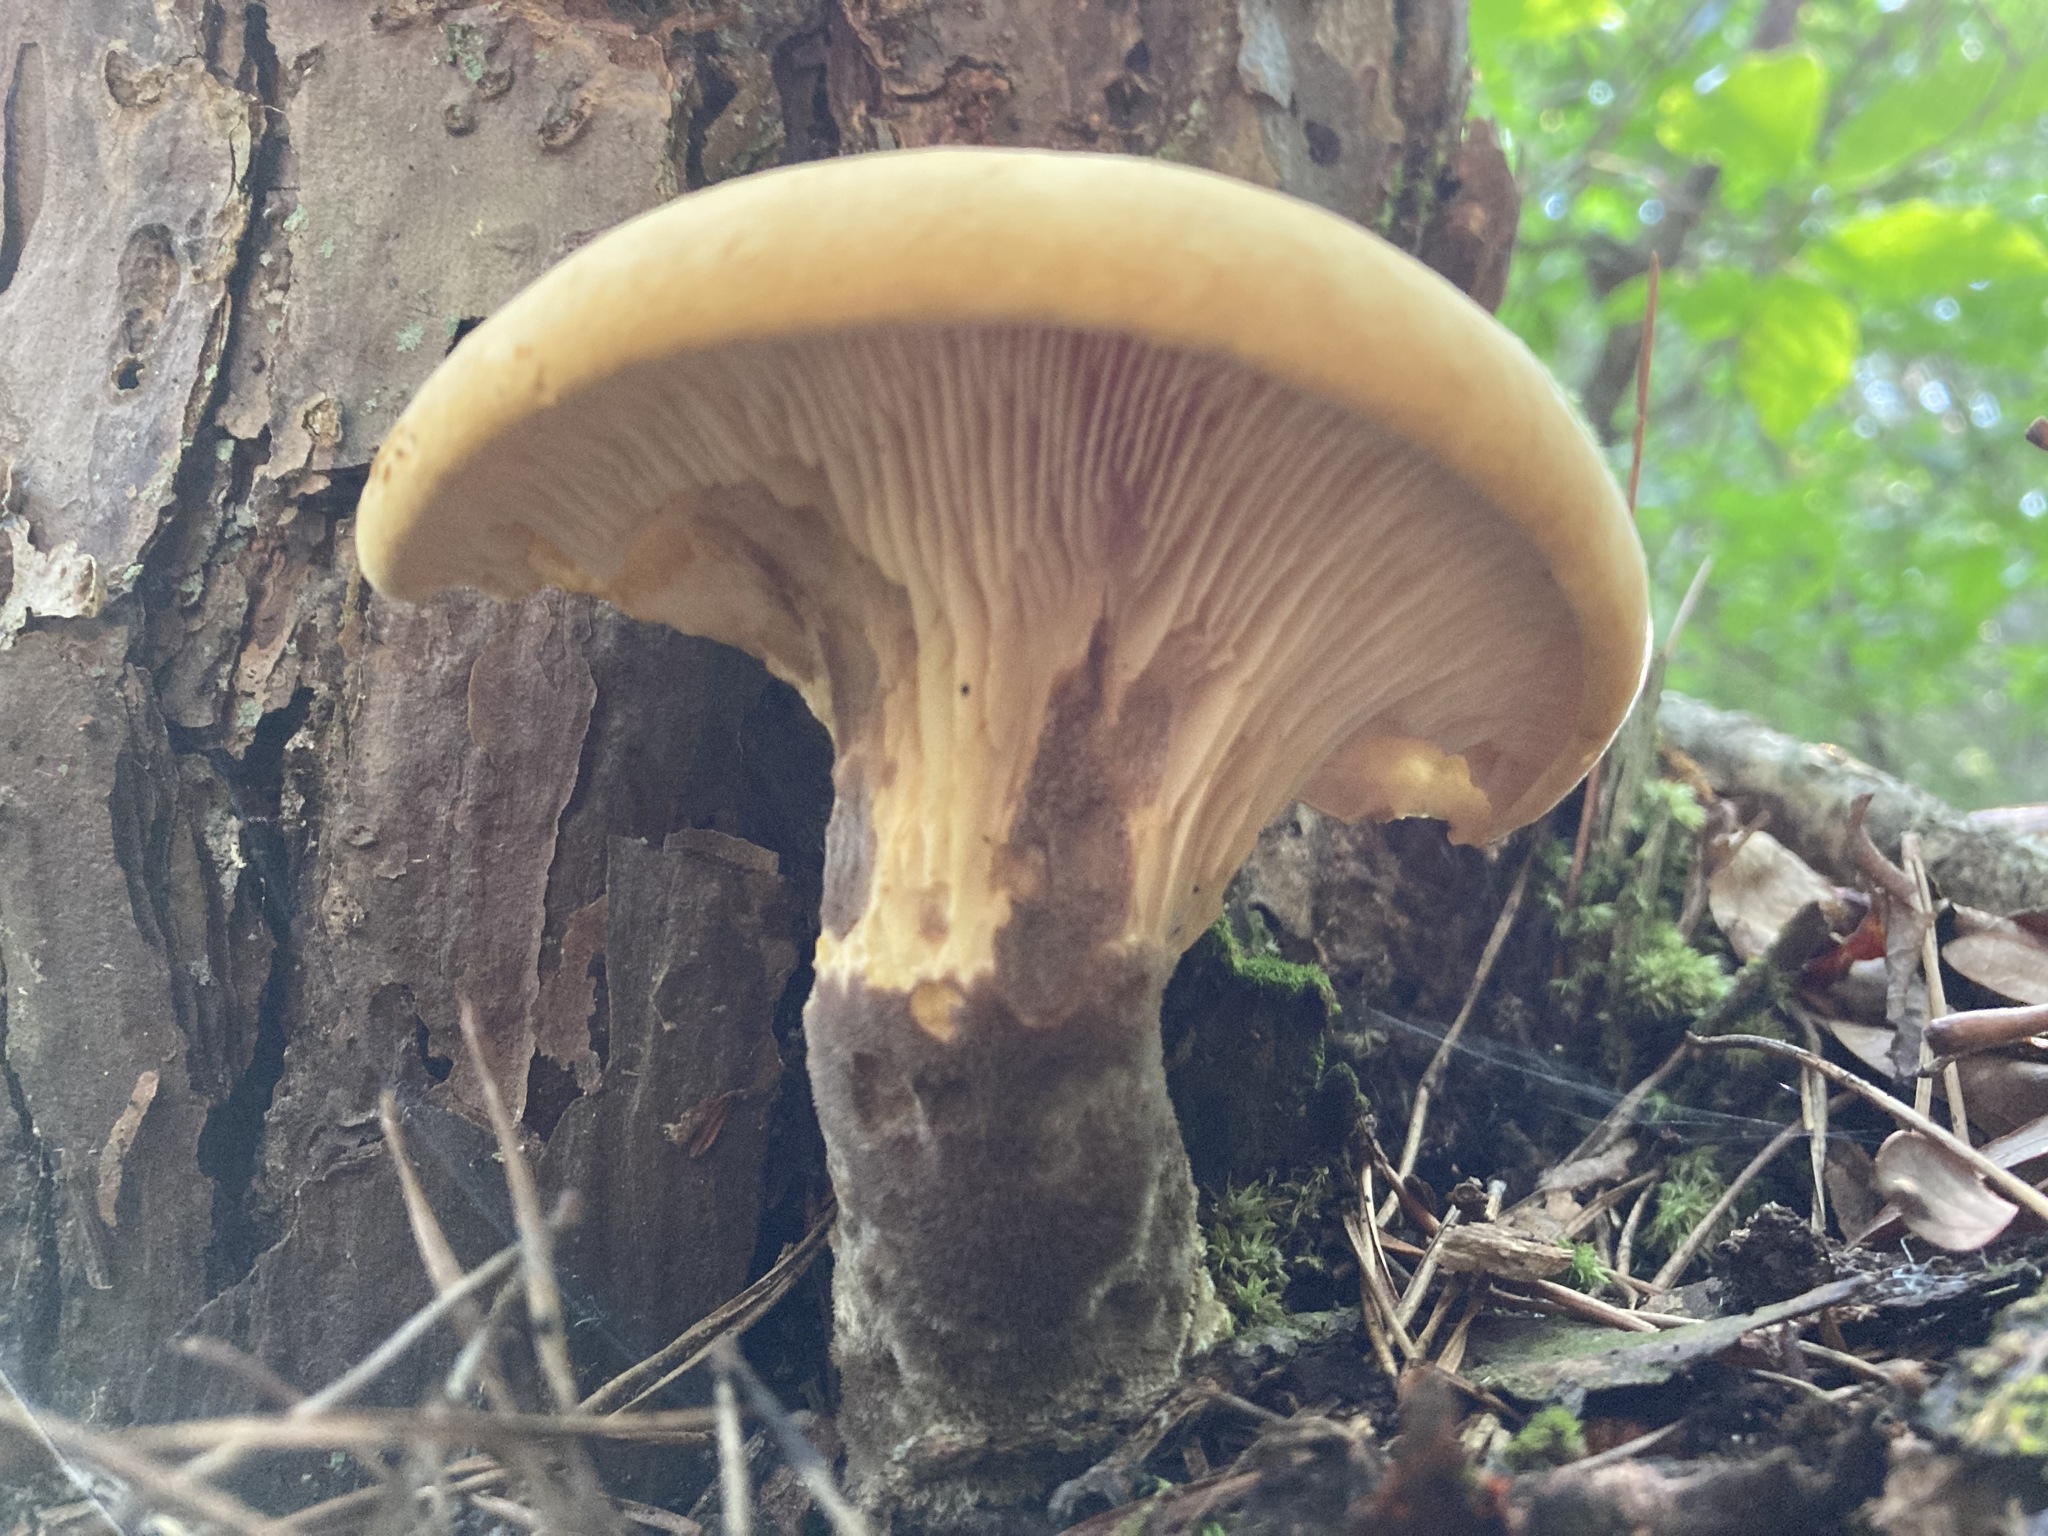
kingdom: Fungi
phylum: Basidiomycota
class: Agaricomycetes
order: Boletales
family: Tapinellaceae
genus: Tapinella
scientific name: Tapinella atrotomentosa
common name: Velvet rollrim
